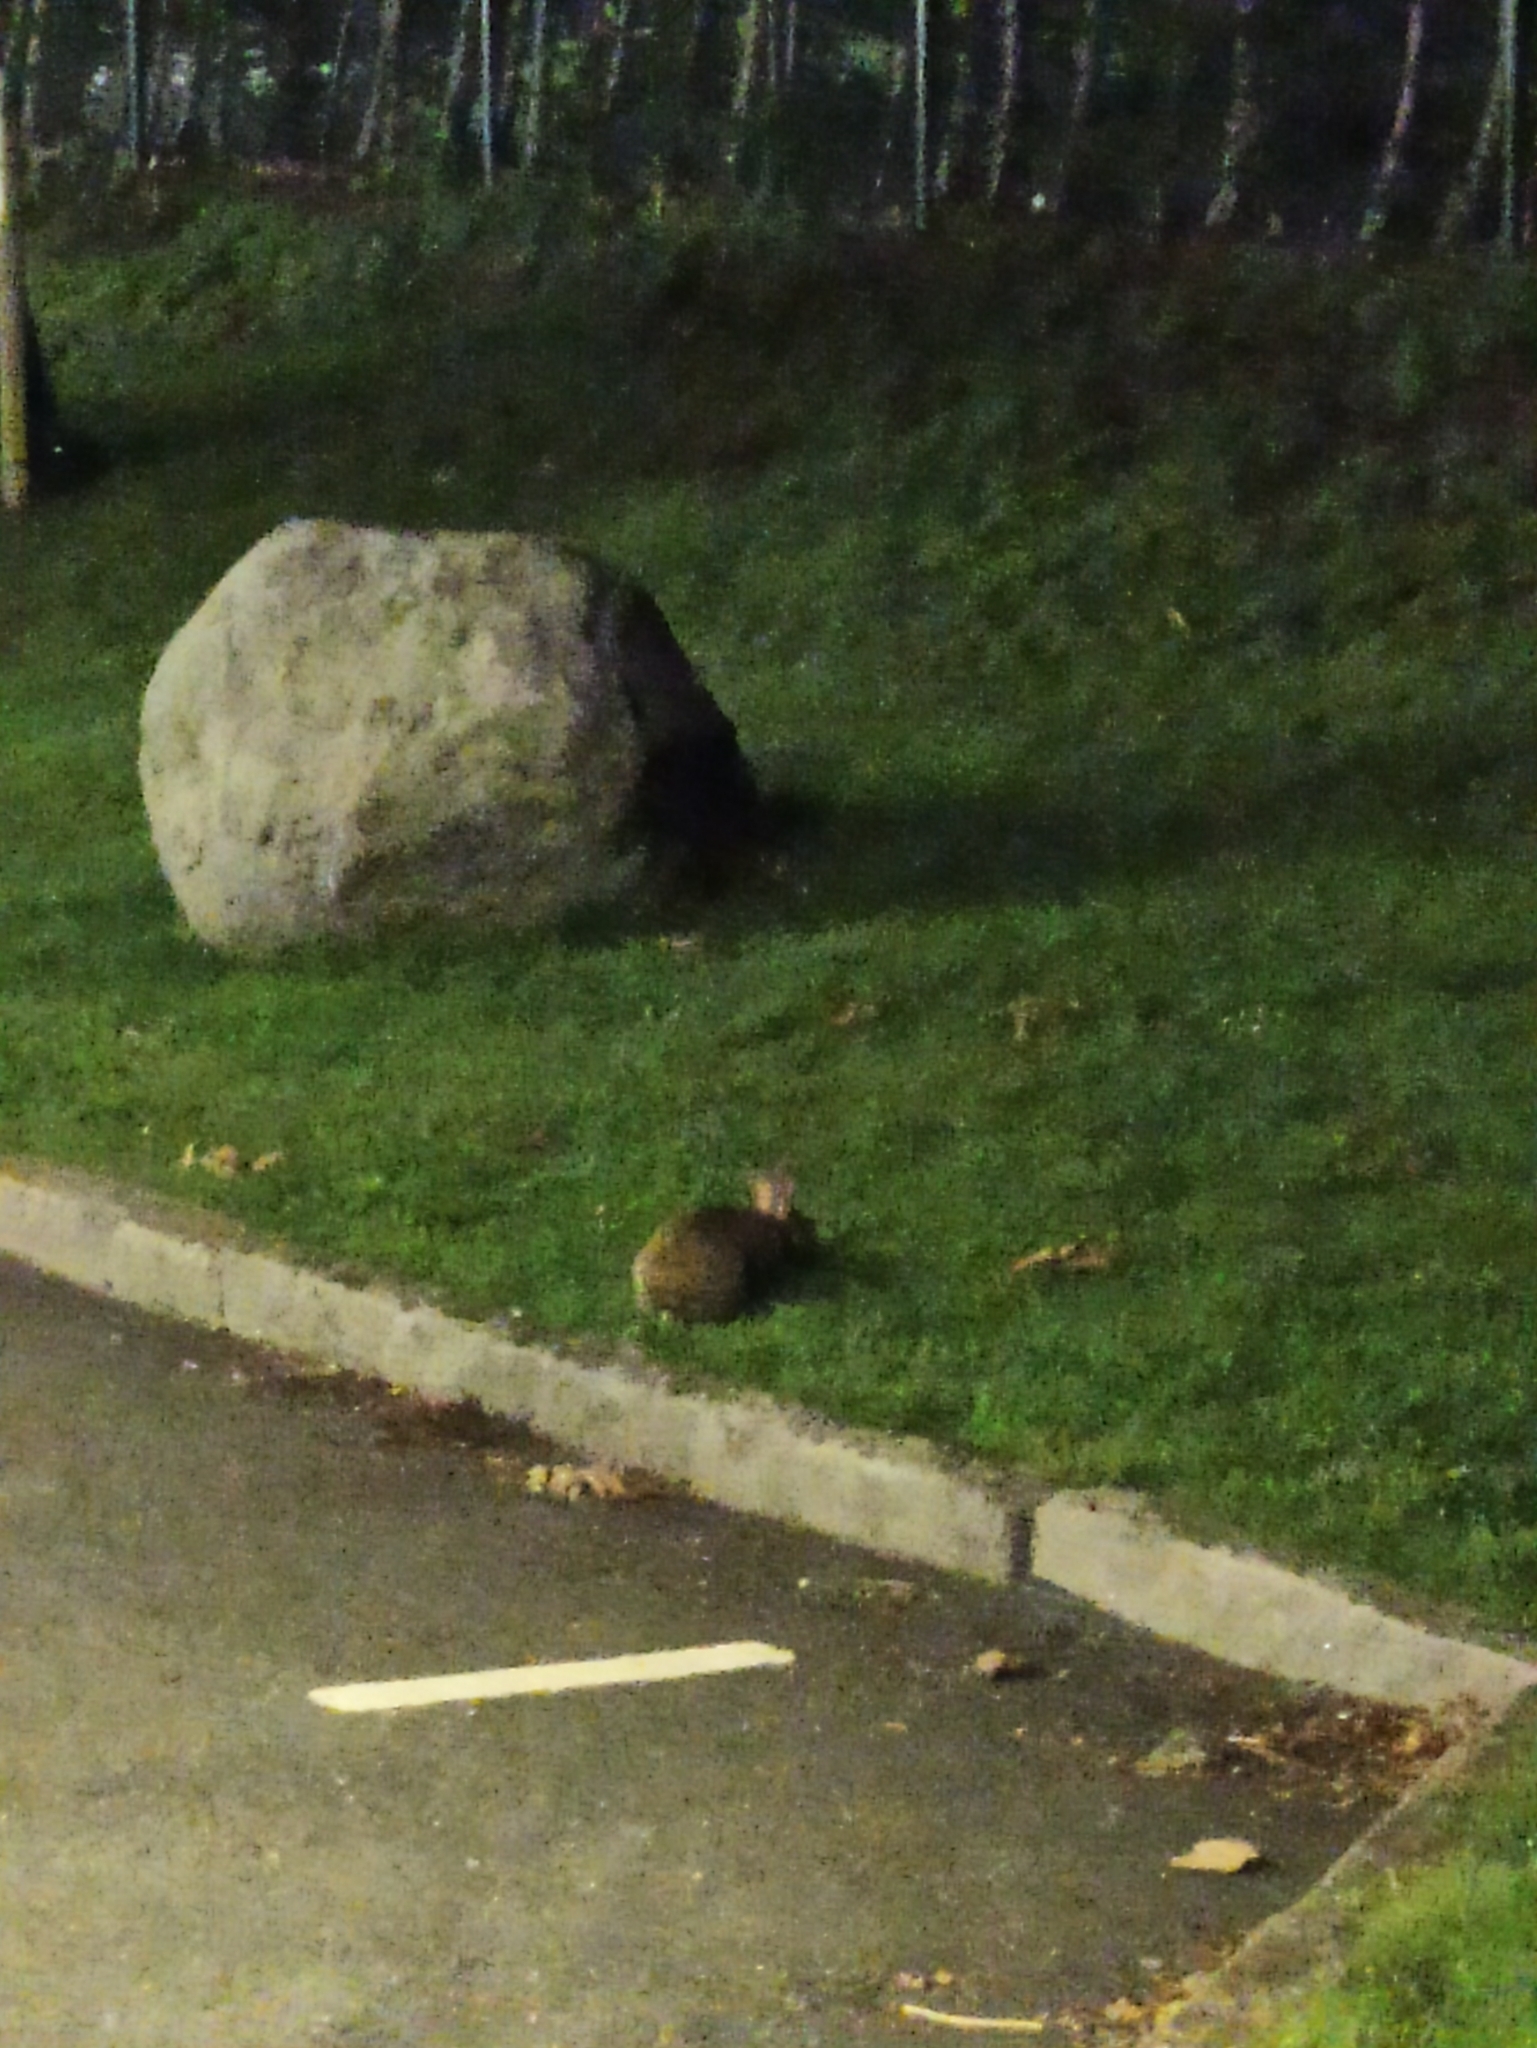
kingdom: Animalia
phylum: Chordata
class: Mammalia
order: Lagomorpha
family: Leporidae
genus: Oryctolagus
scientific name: Oryctolagus cuniculus
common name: European rabbit
